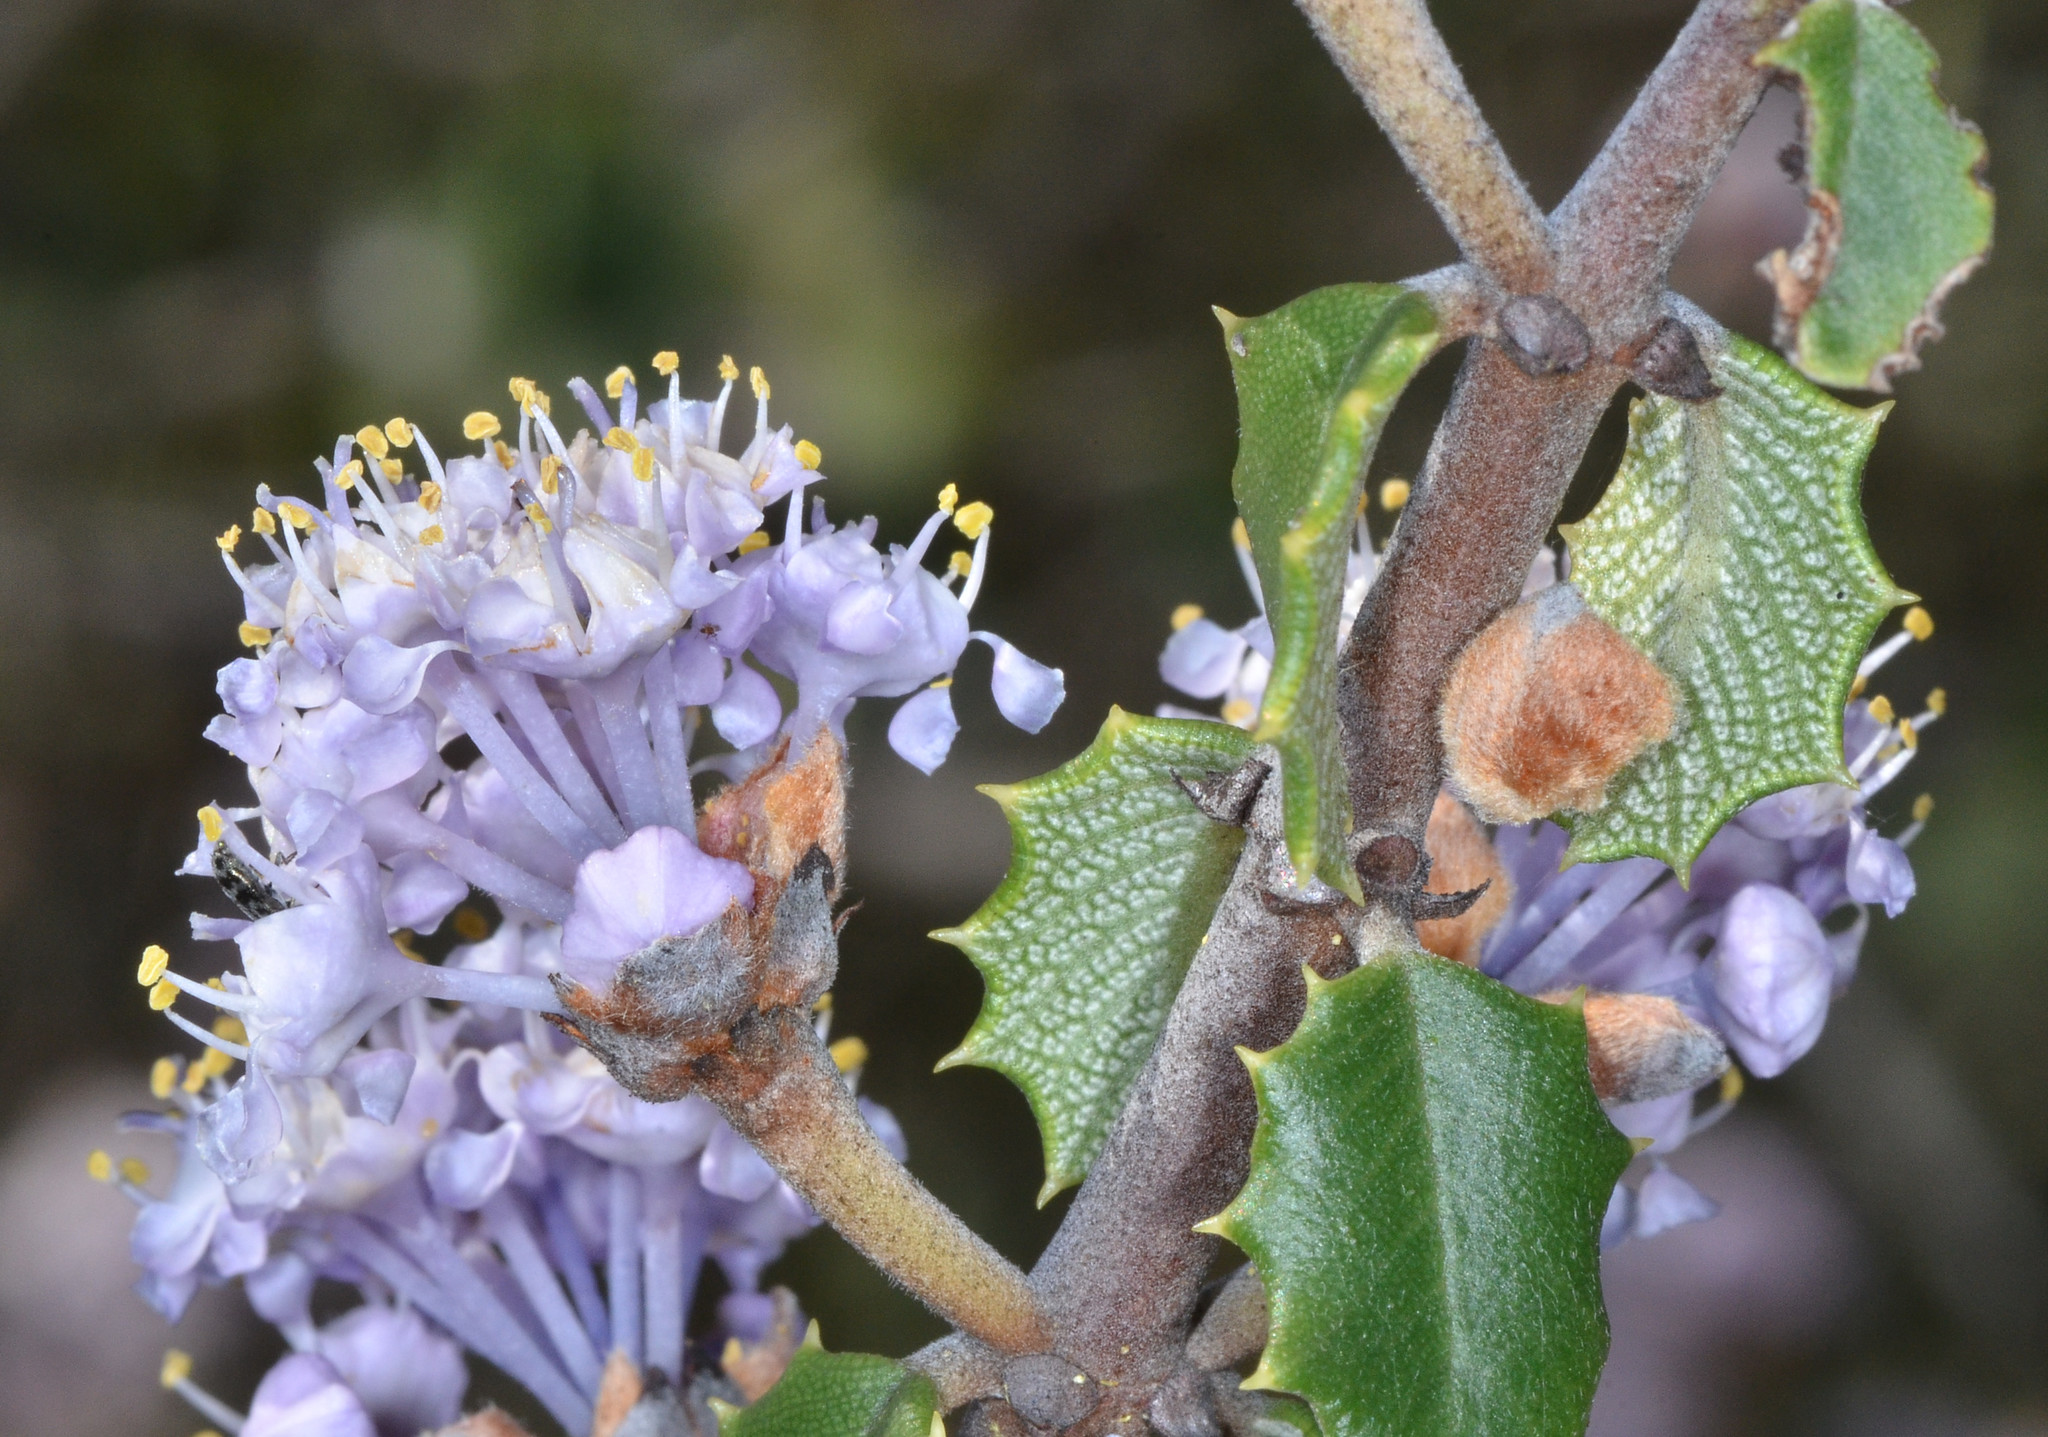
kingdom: Plantae
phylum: Tracheophyta
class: Magnoliopsida
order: Rosales
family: Rhamnaceae
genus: Ceanothus
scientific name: Ceanothus jepsonii
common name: Muskbrush
